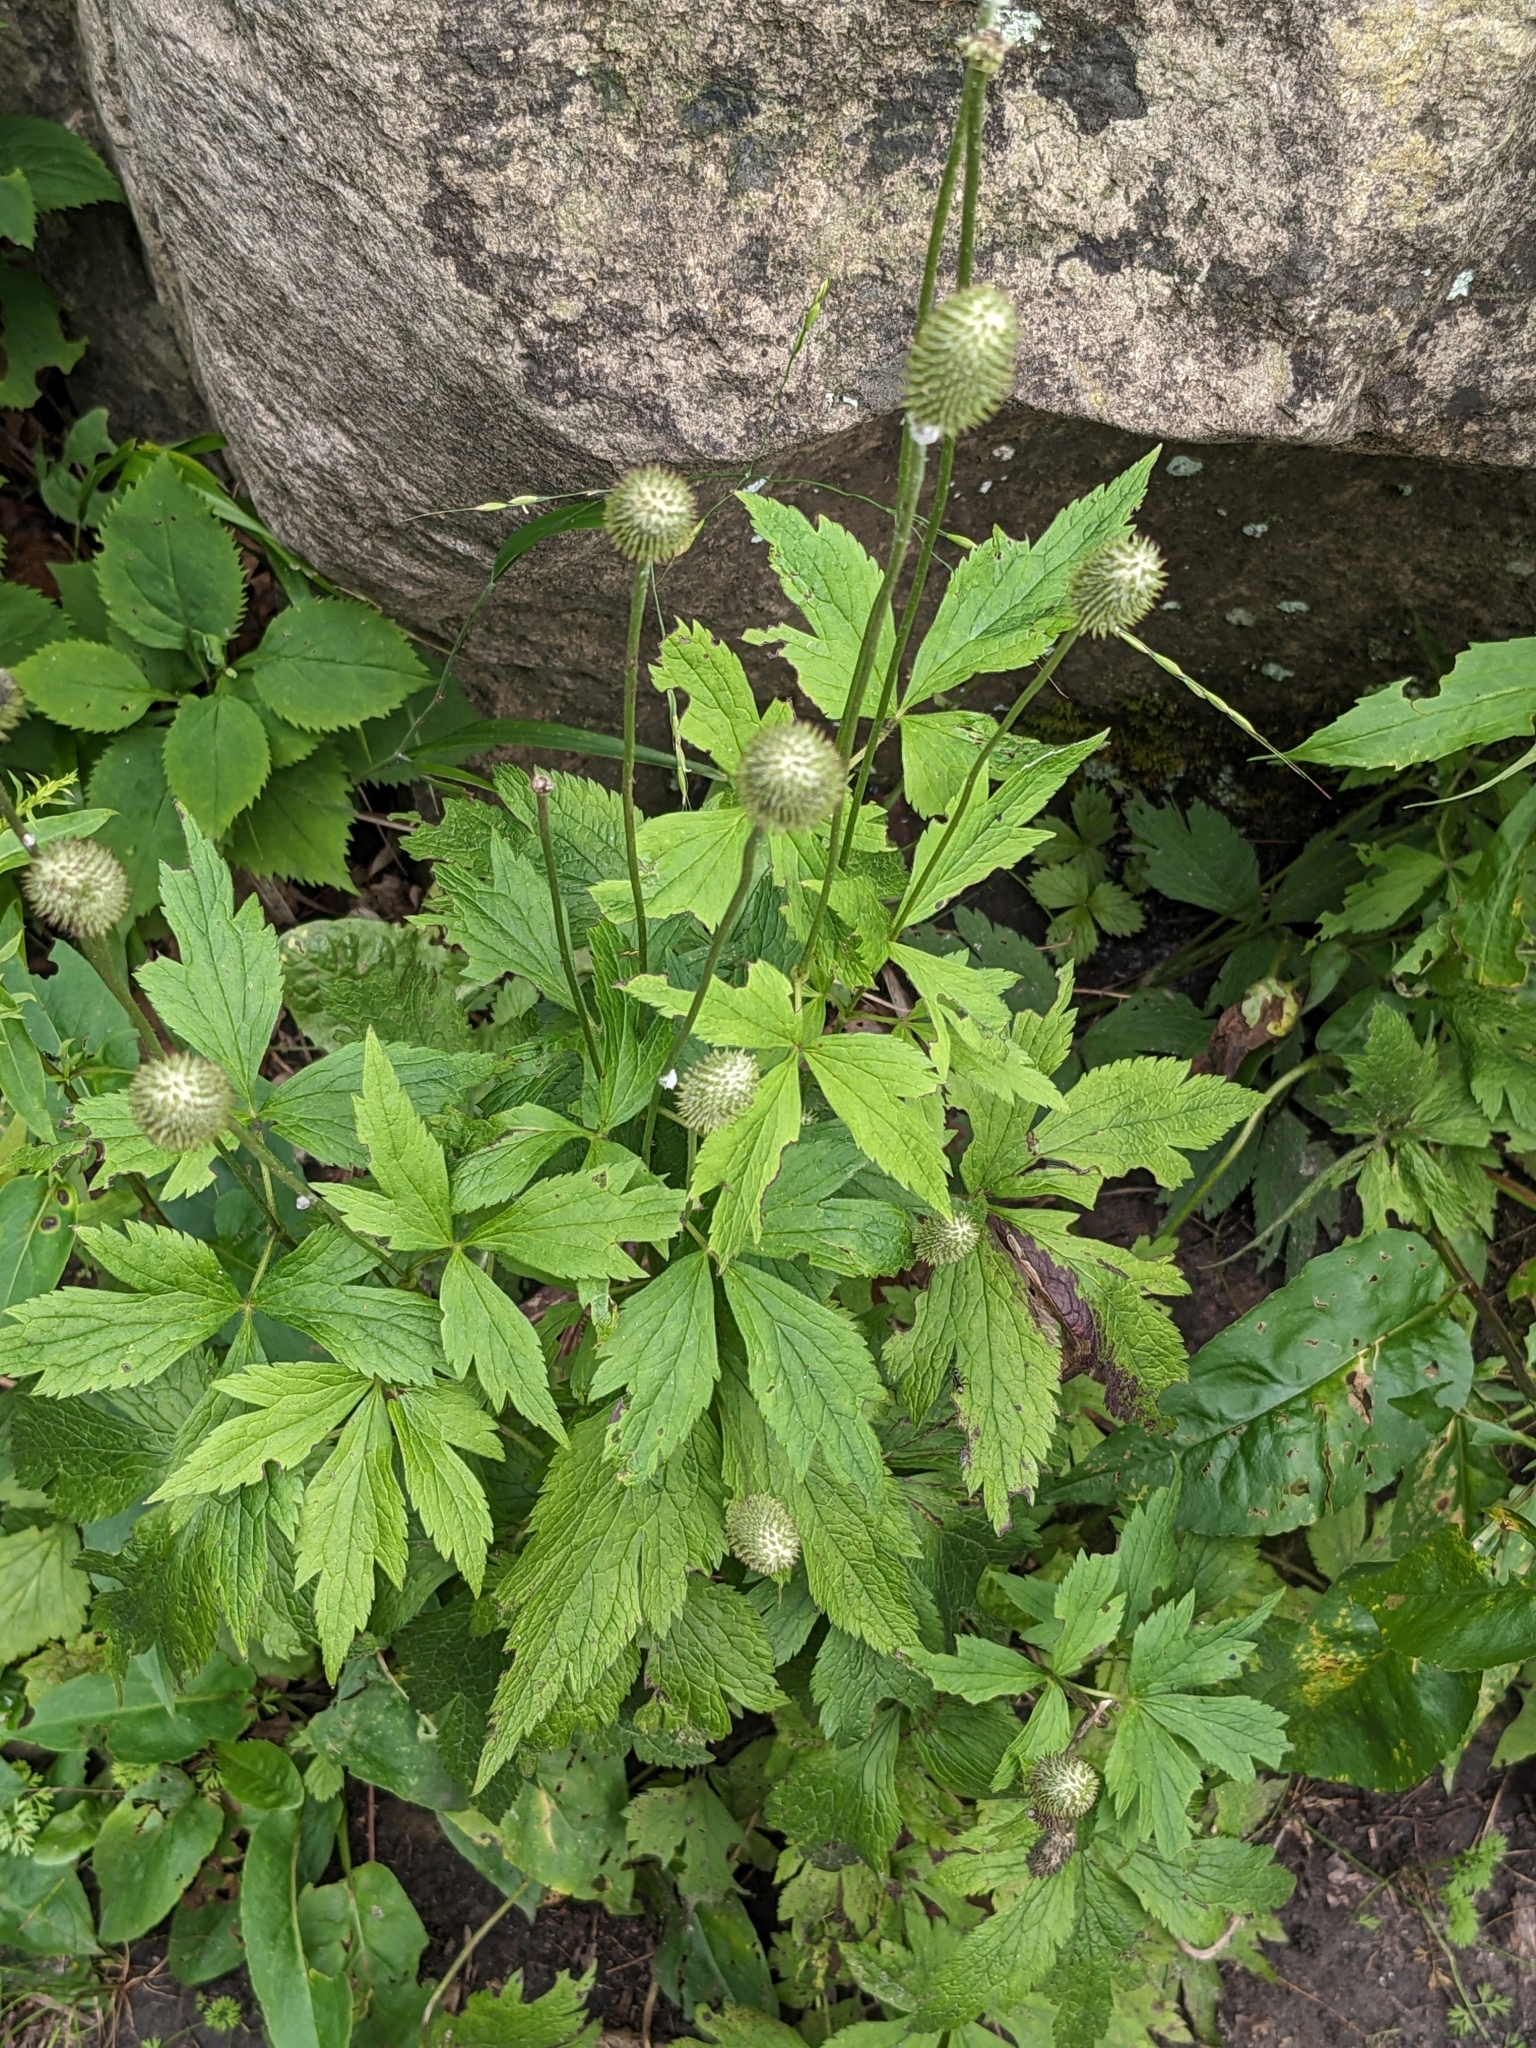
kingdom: Plantae
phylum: Tracheophyta
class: Magnoliopsida
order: Ranunculales
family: Ranunculaceae
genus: Anemone
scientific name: Anemone virginiana
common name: Tall anemone
